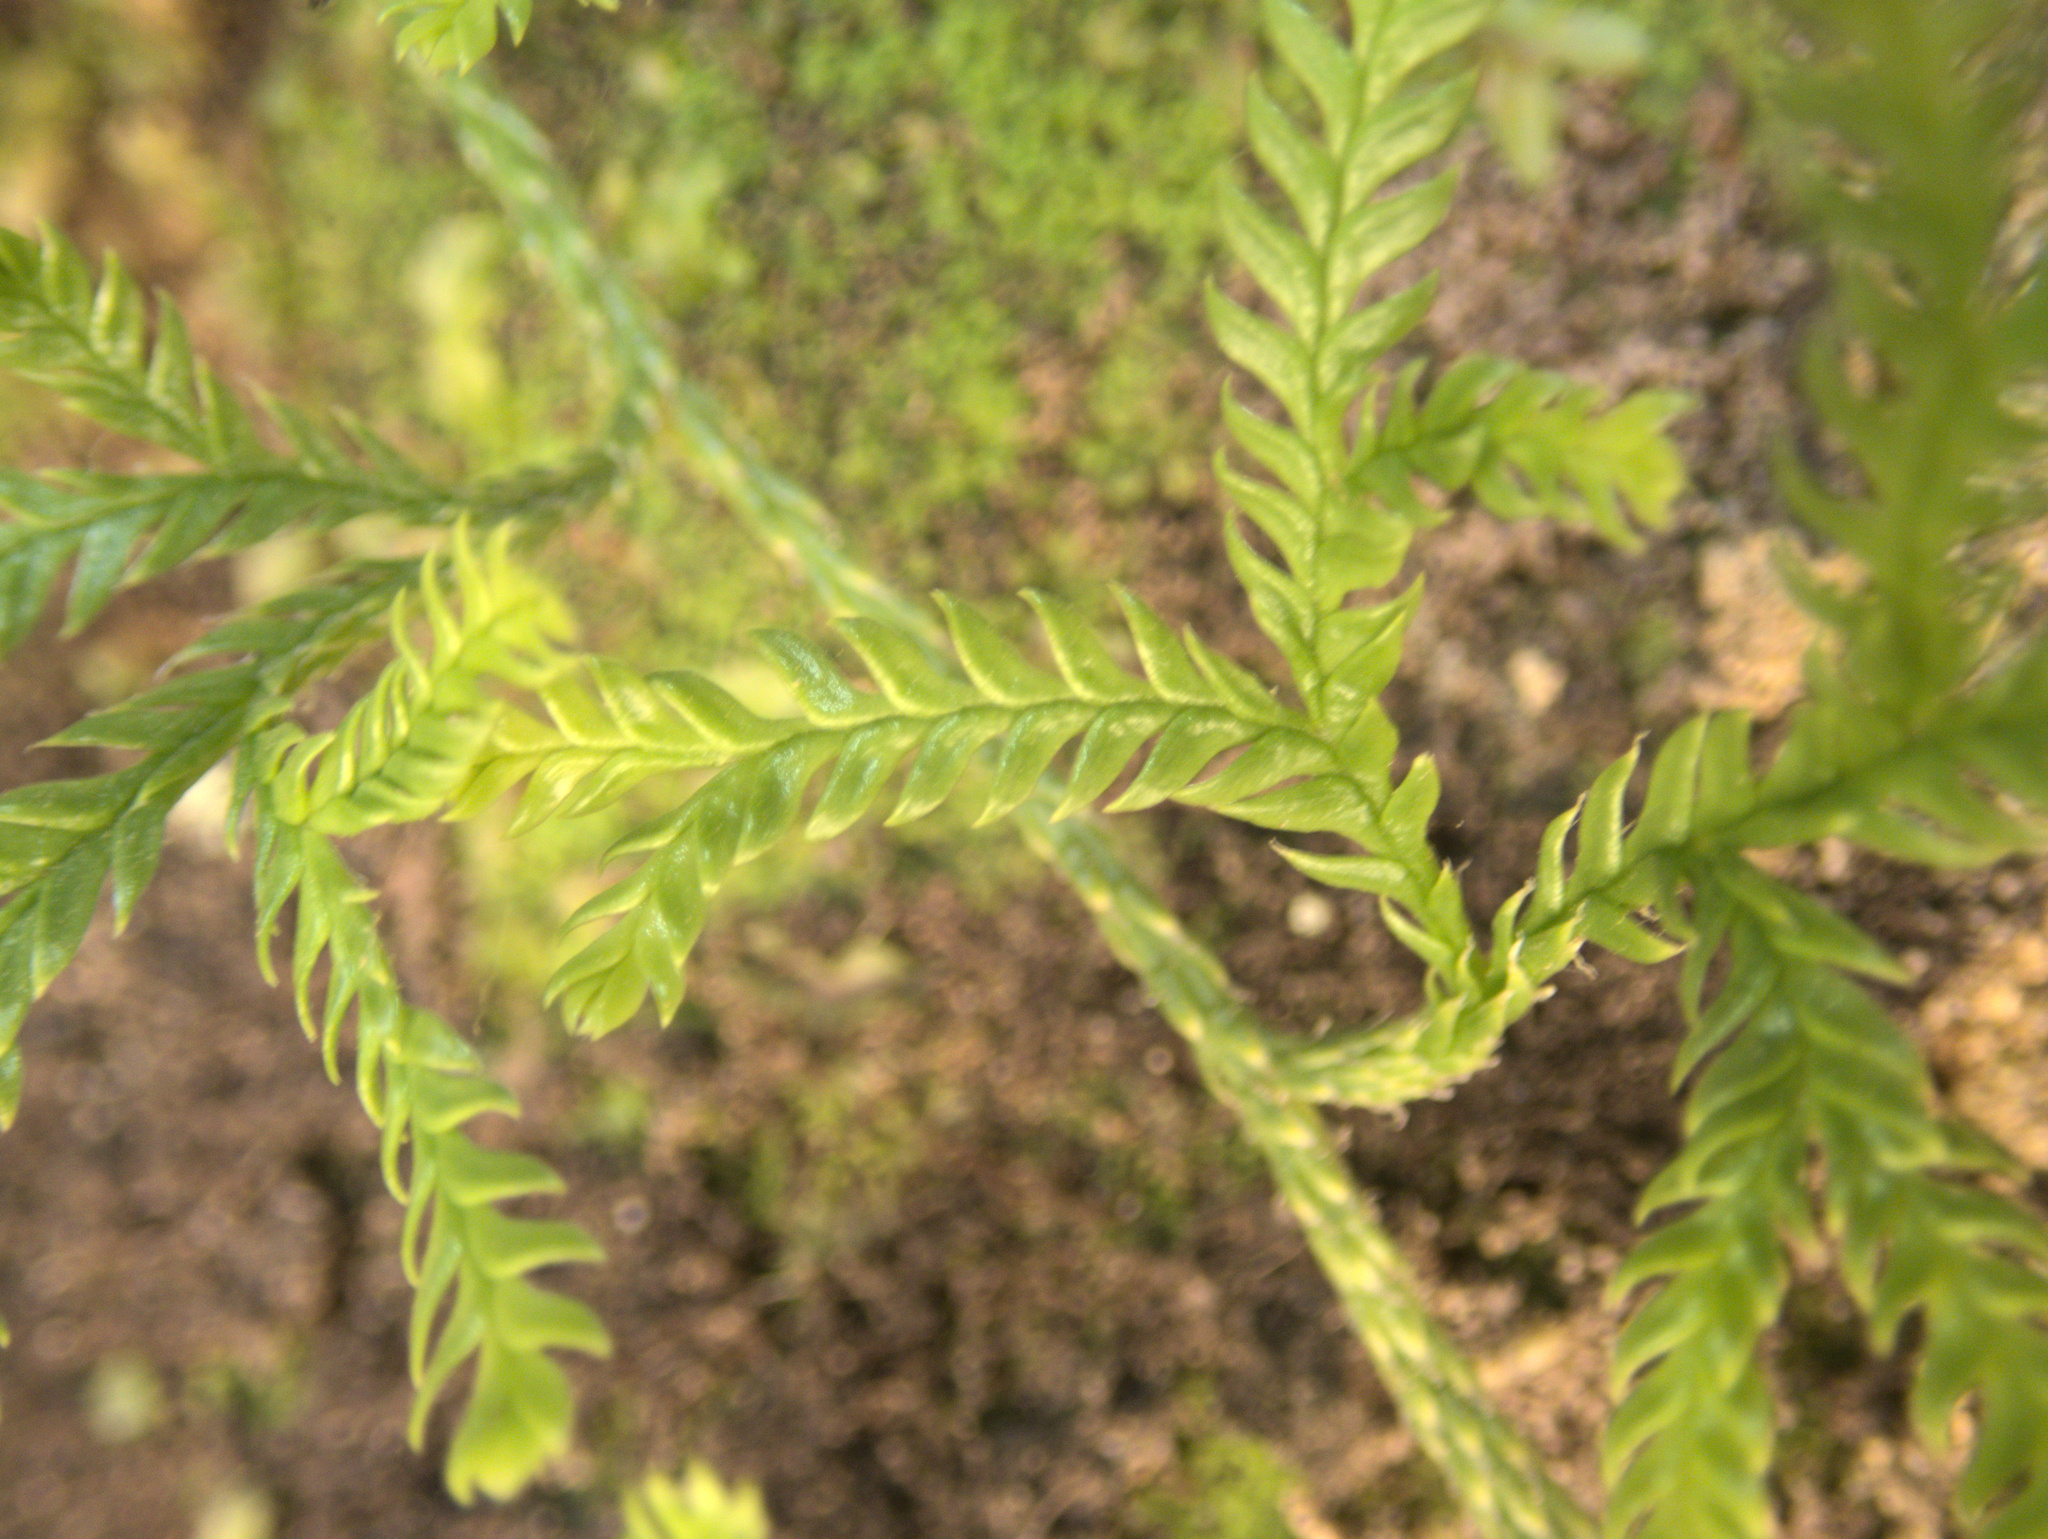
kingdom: Plantae
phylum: Tracheophyta
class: Lycopodiopsida
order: Lycopodiales
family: Lycopodiaceae
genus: Diphasium
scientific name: Diphasium scariosum
